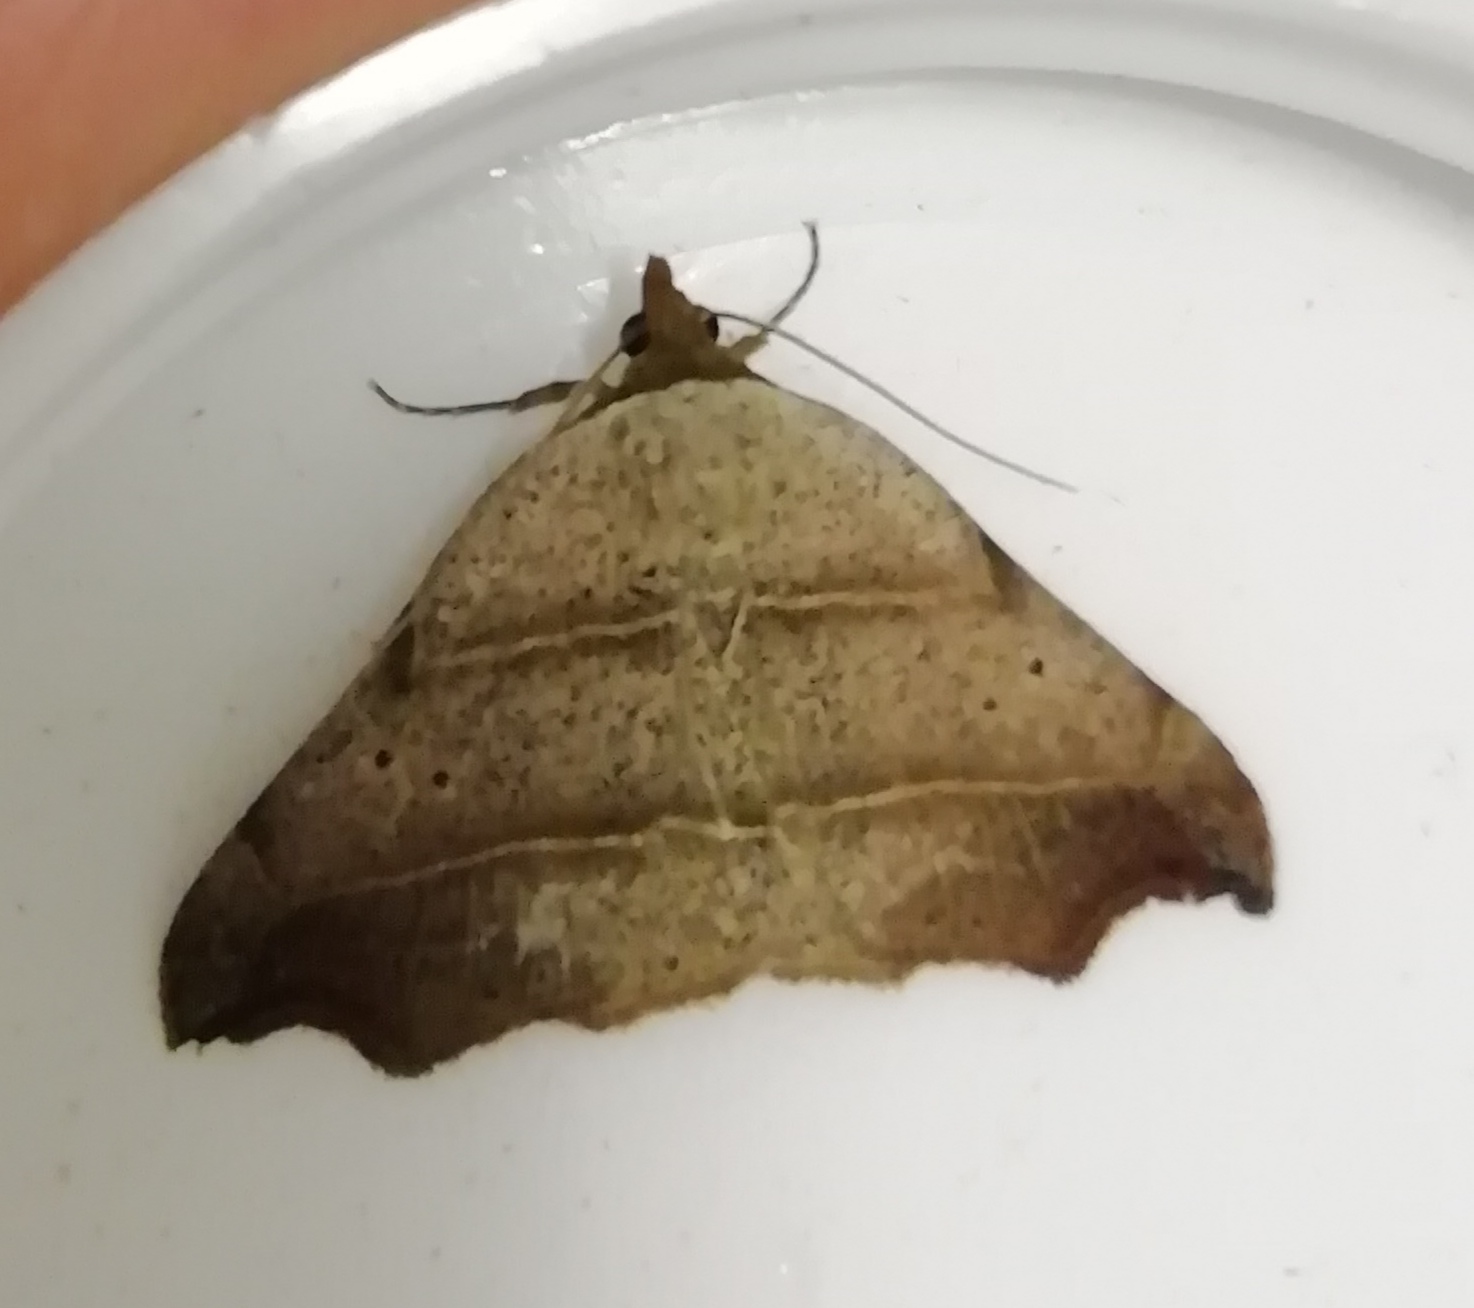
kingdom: Animalia
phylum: Arthropoda
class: Insecta
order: Lepidoptera
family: Erebidae
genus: Laspeyria
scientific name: Laspeyria flexula
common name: Beautiful hook-tip
